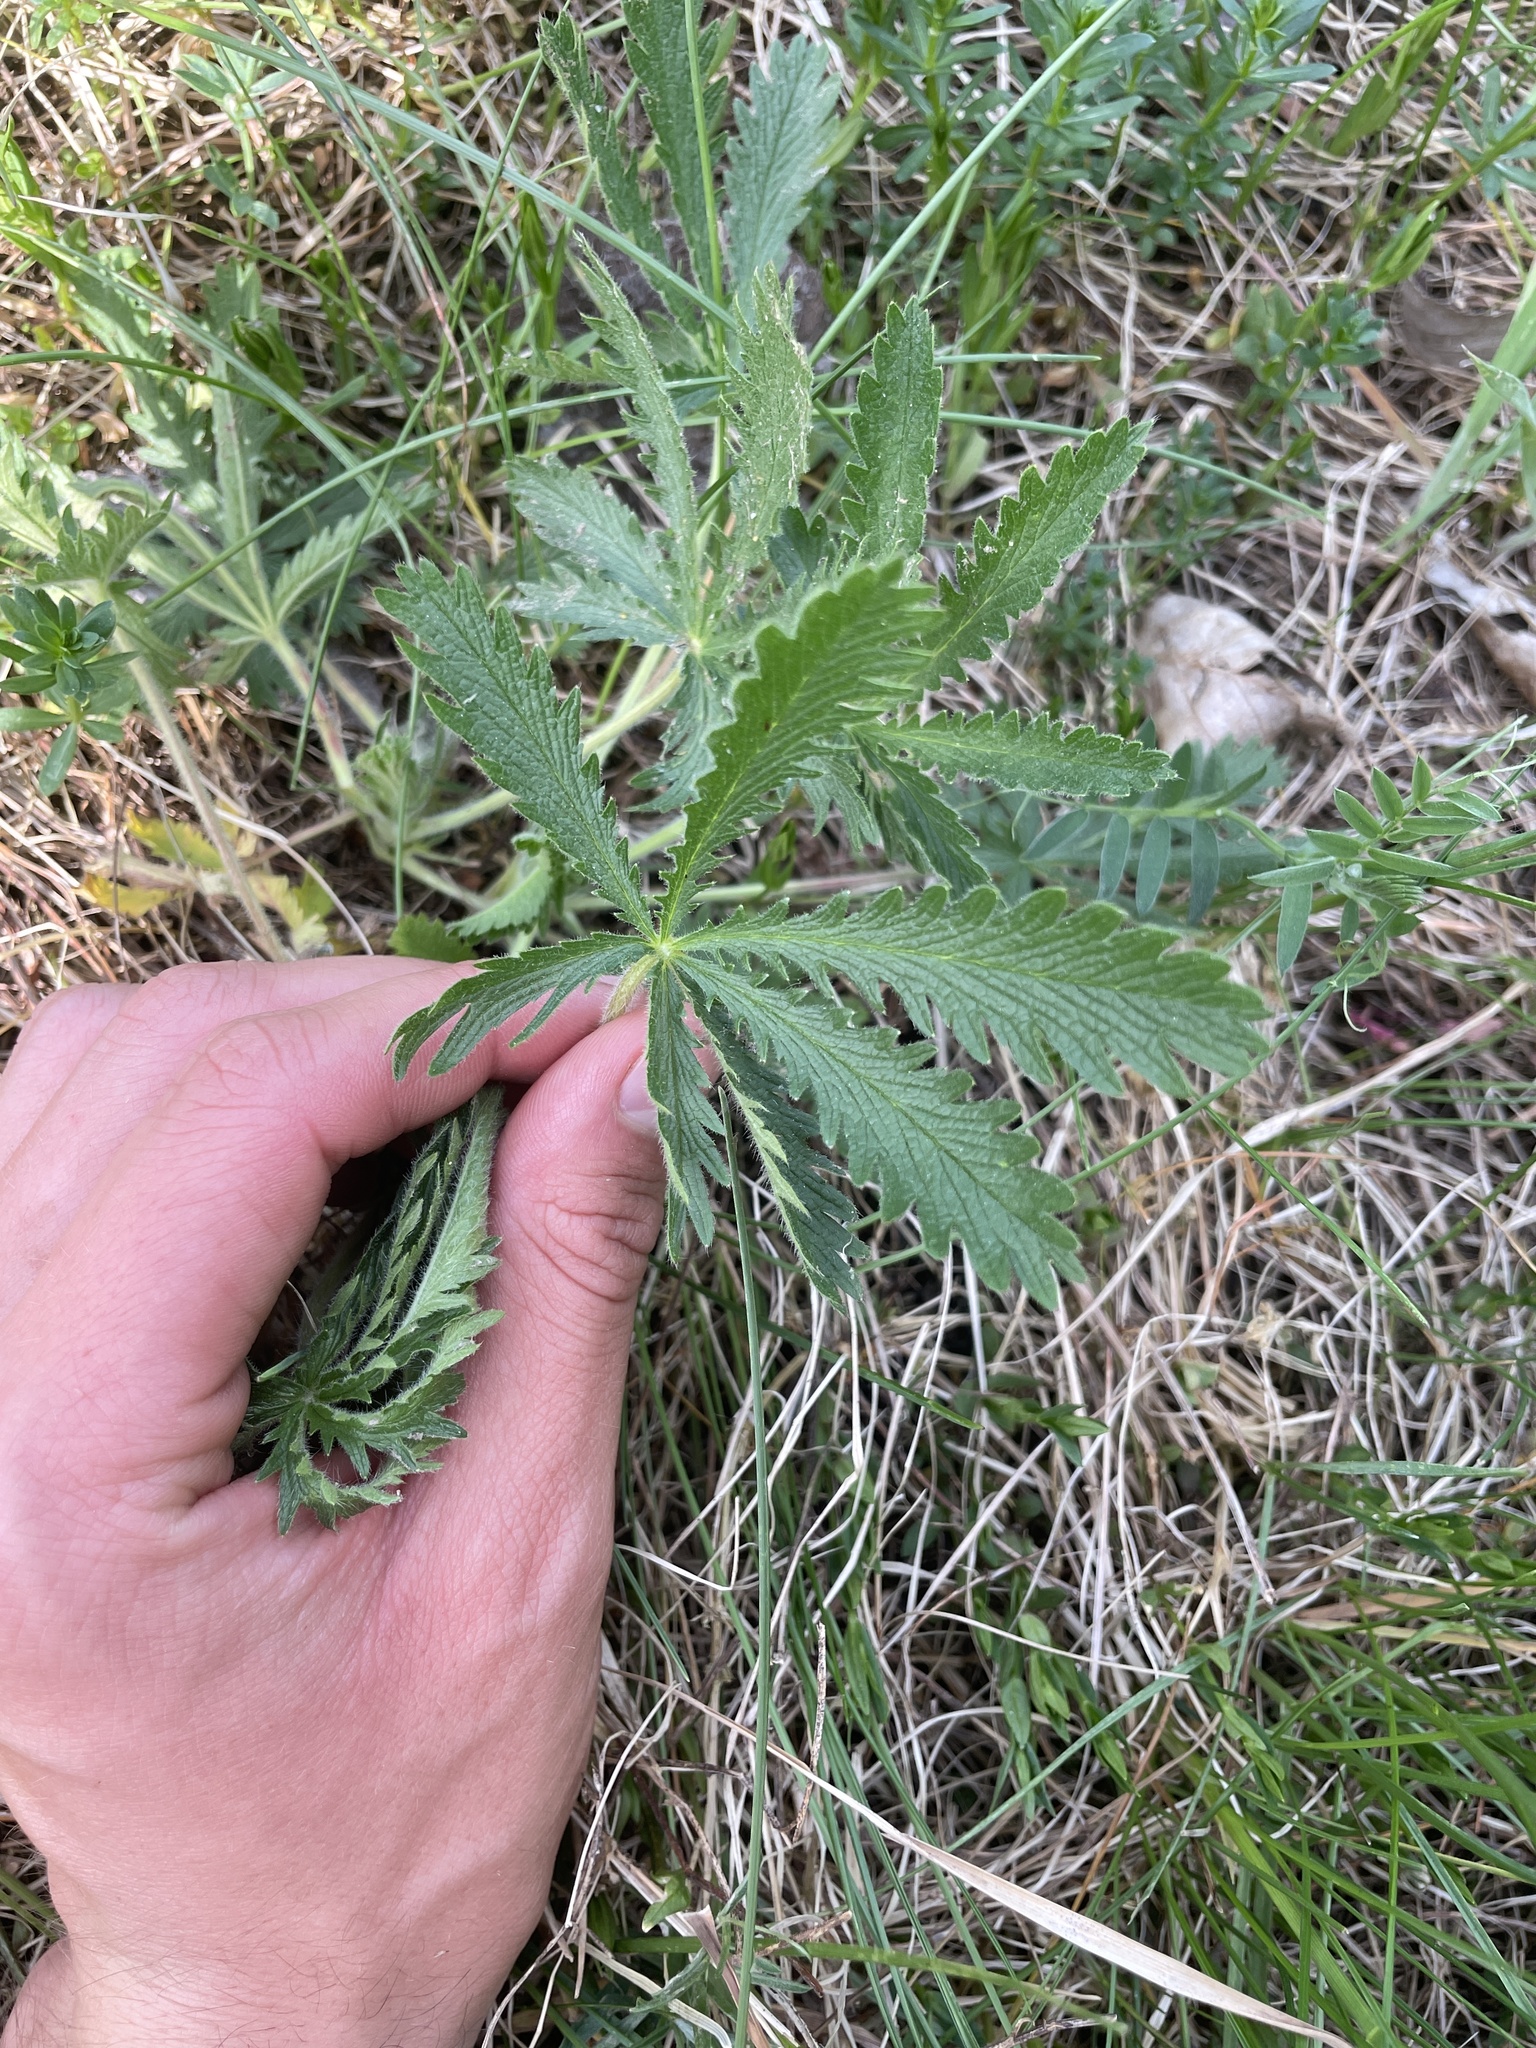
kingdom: Plantae
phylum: Tracheophyta
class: Magnoliopsida
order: Rosales
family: Rosaceae
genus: Potentilla
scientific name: Potentilla recta
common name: Sulphur cinquefoil
